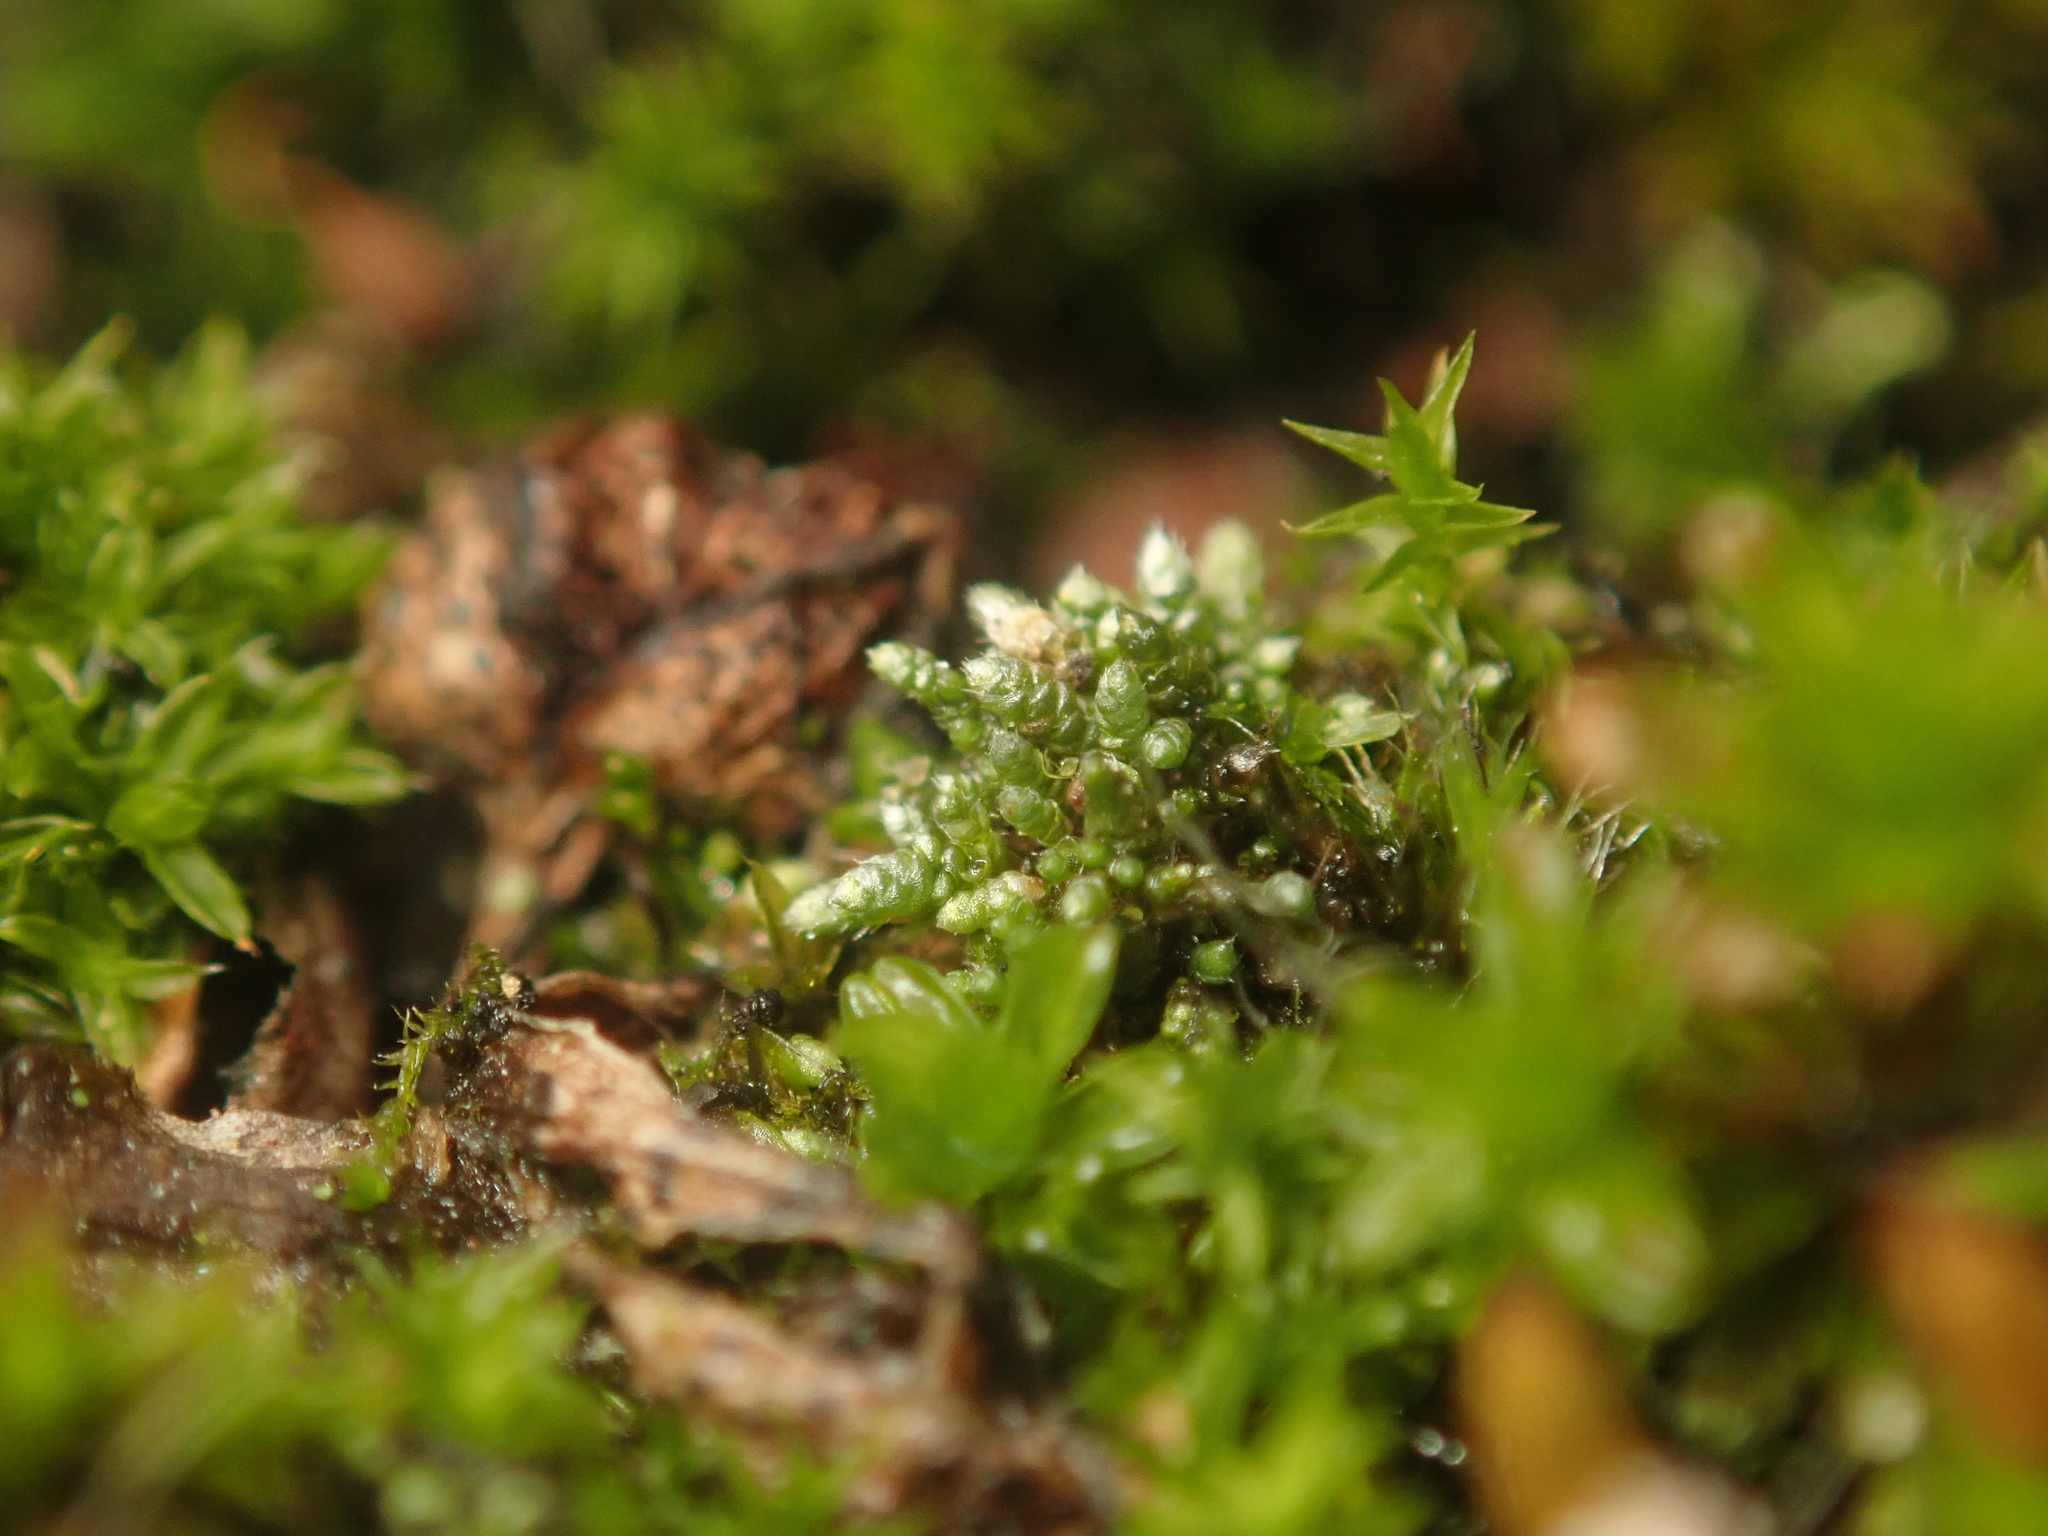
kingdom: Plantae
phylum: Bryophyta
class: Bryopsida
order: Bryales
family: Bryaceae
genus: Bryum
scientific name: Bryum argenteum
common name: Silver-moss
